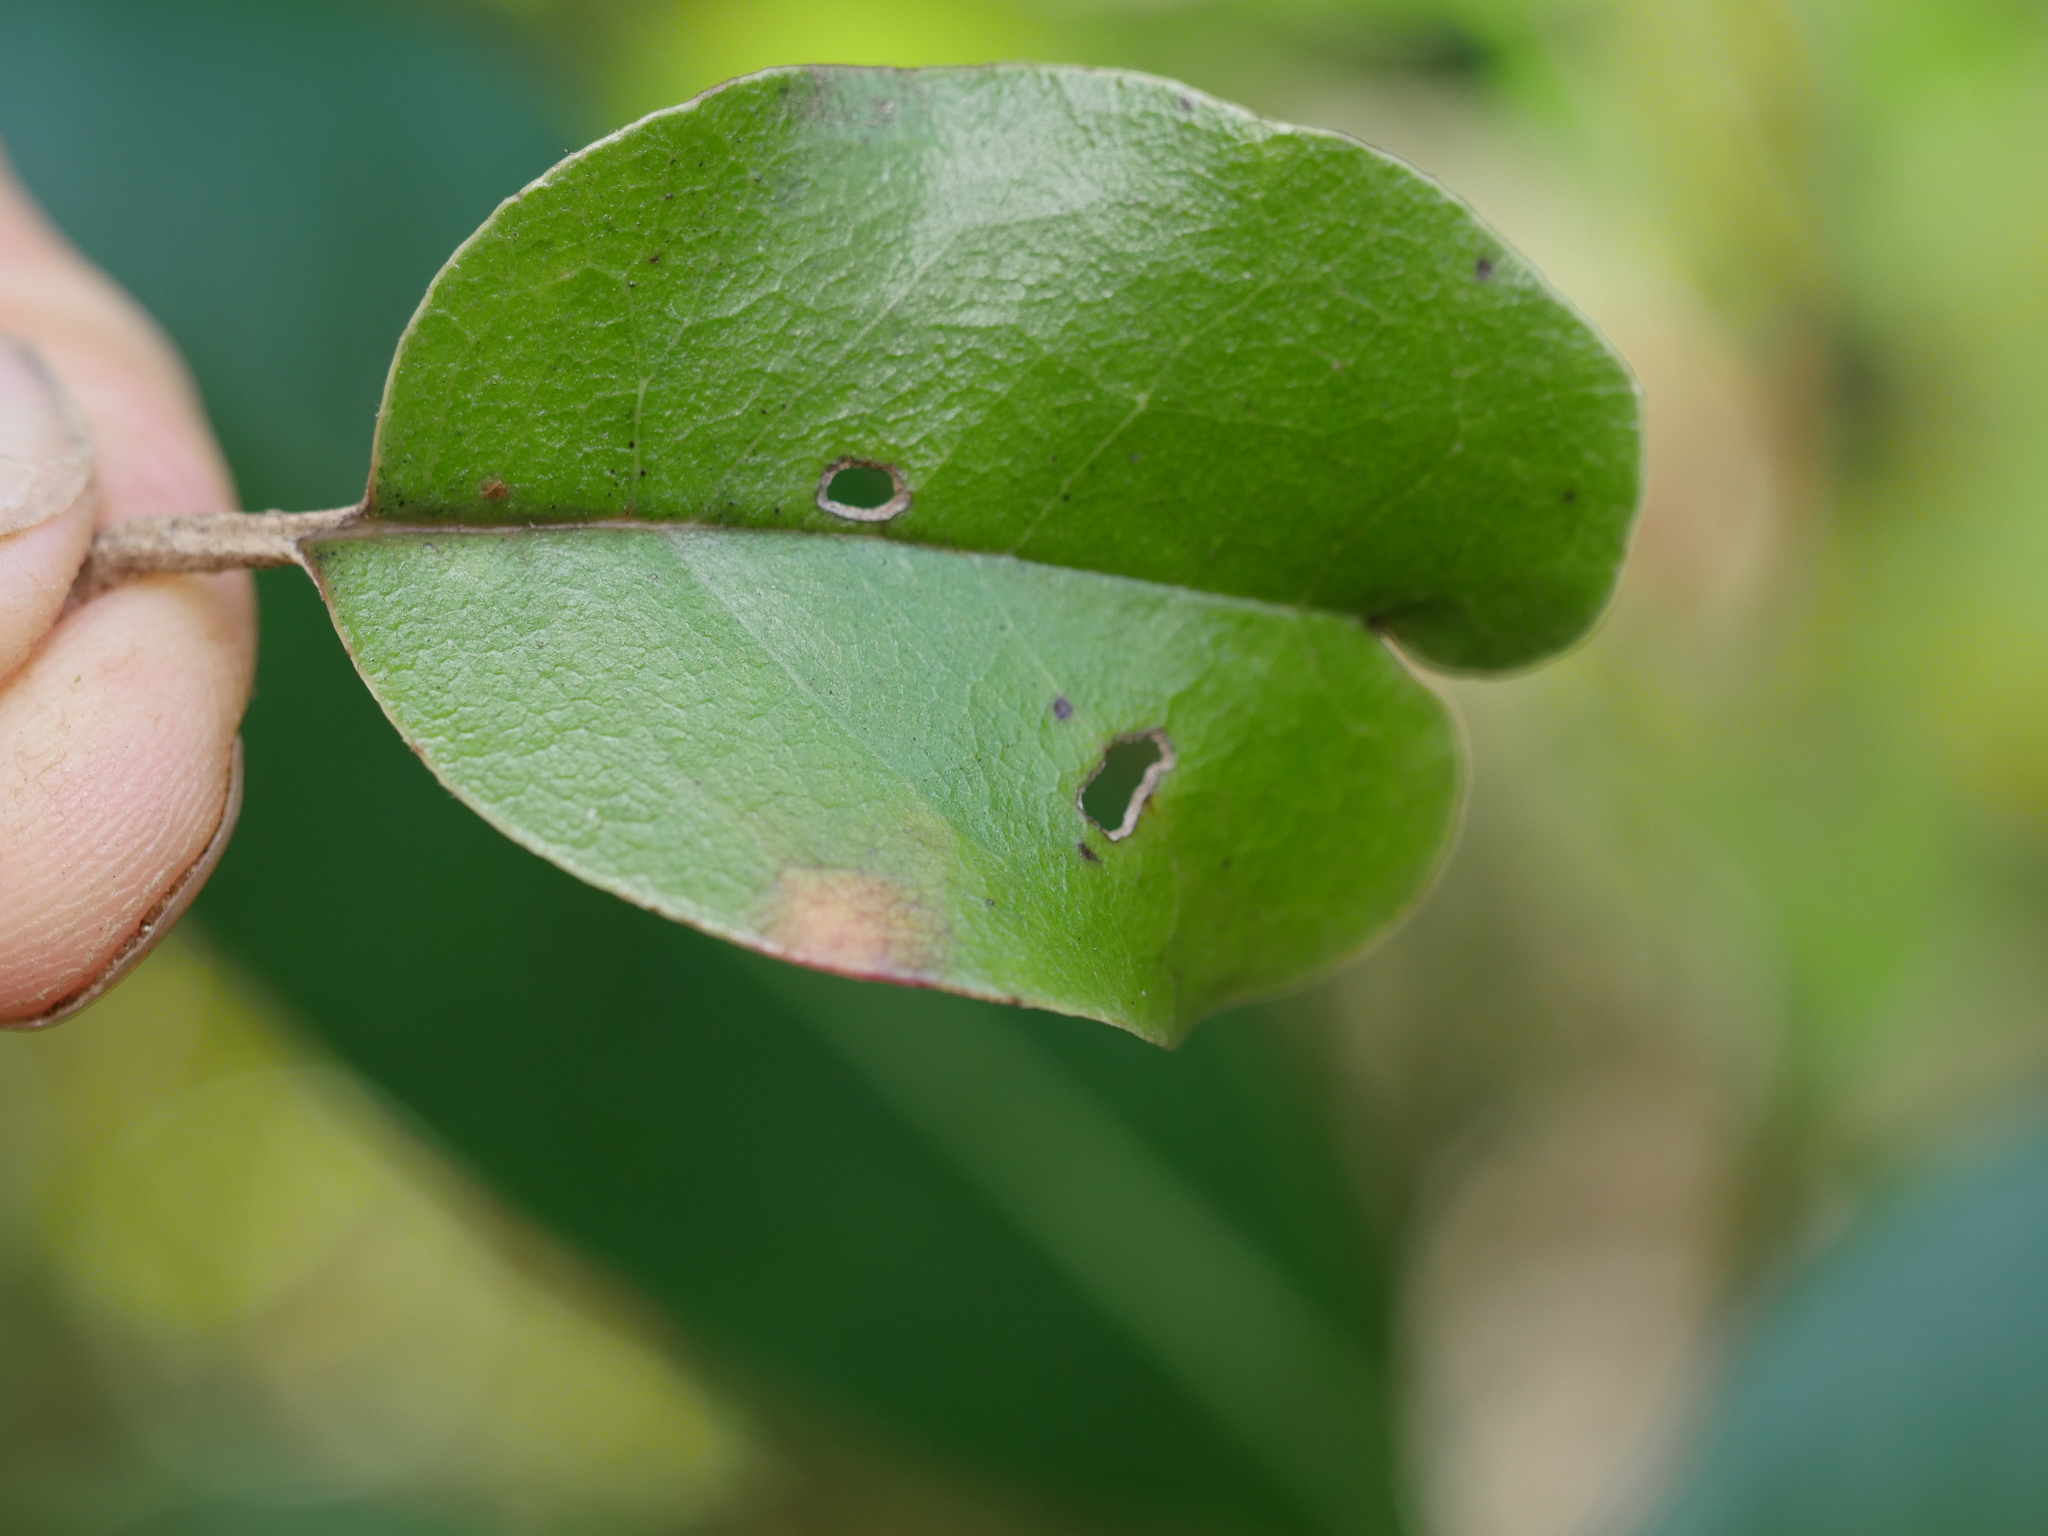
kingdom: Plantae
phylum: Tracheophyta
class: Magnoliopsida
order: Asterales
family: Asteraceae
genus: Olearia
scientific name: Olearia furfuracea
